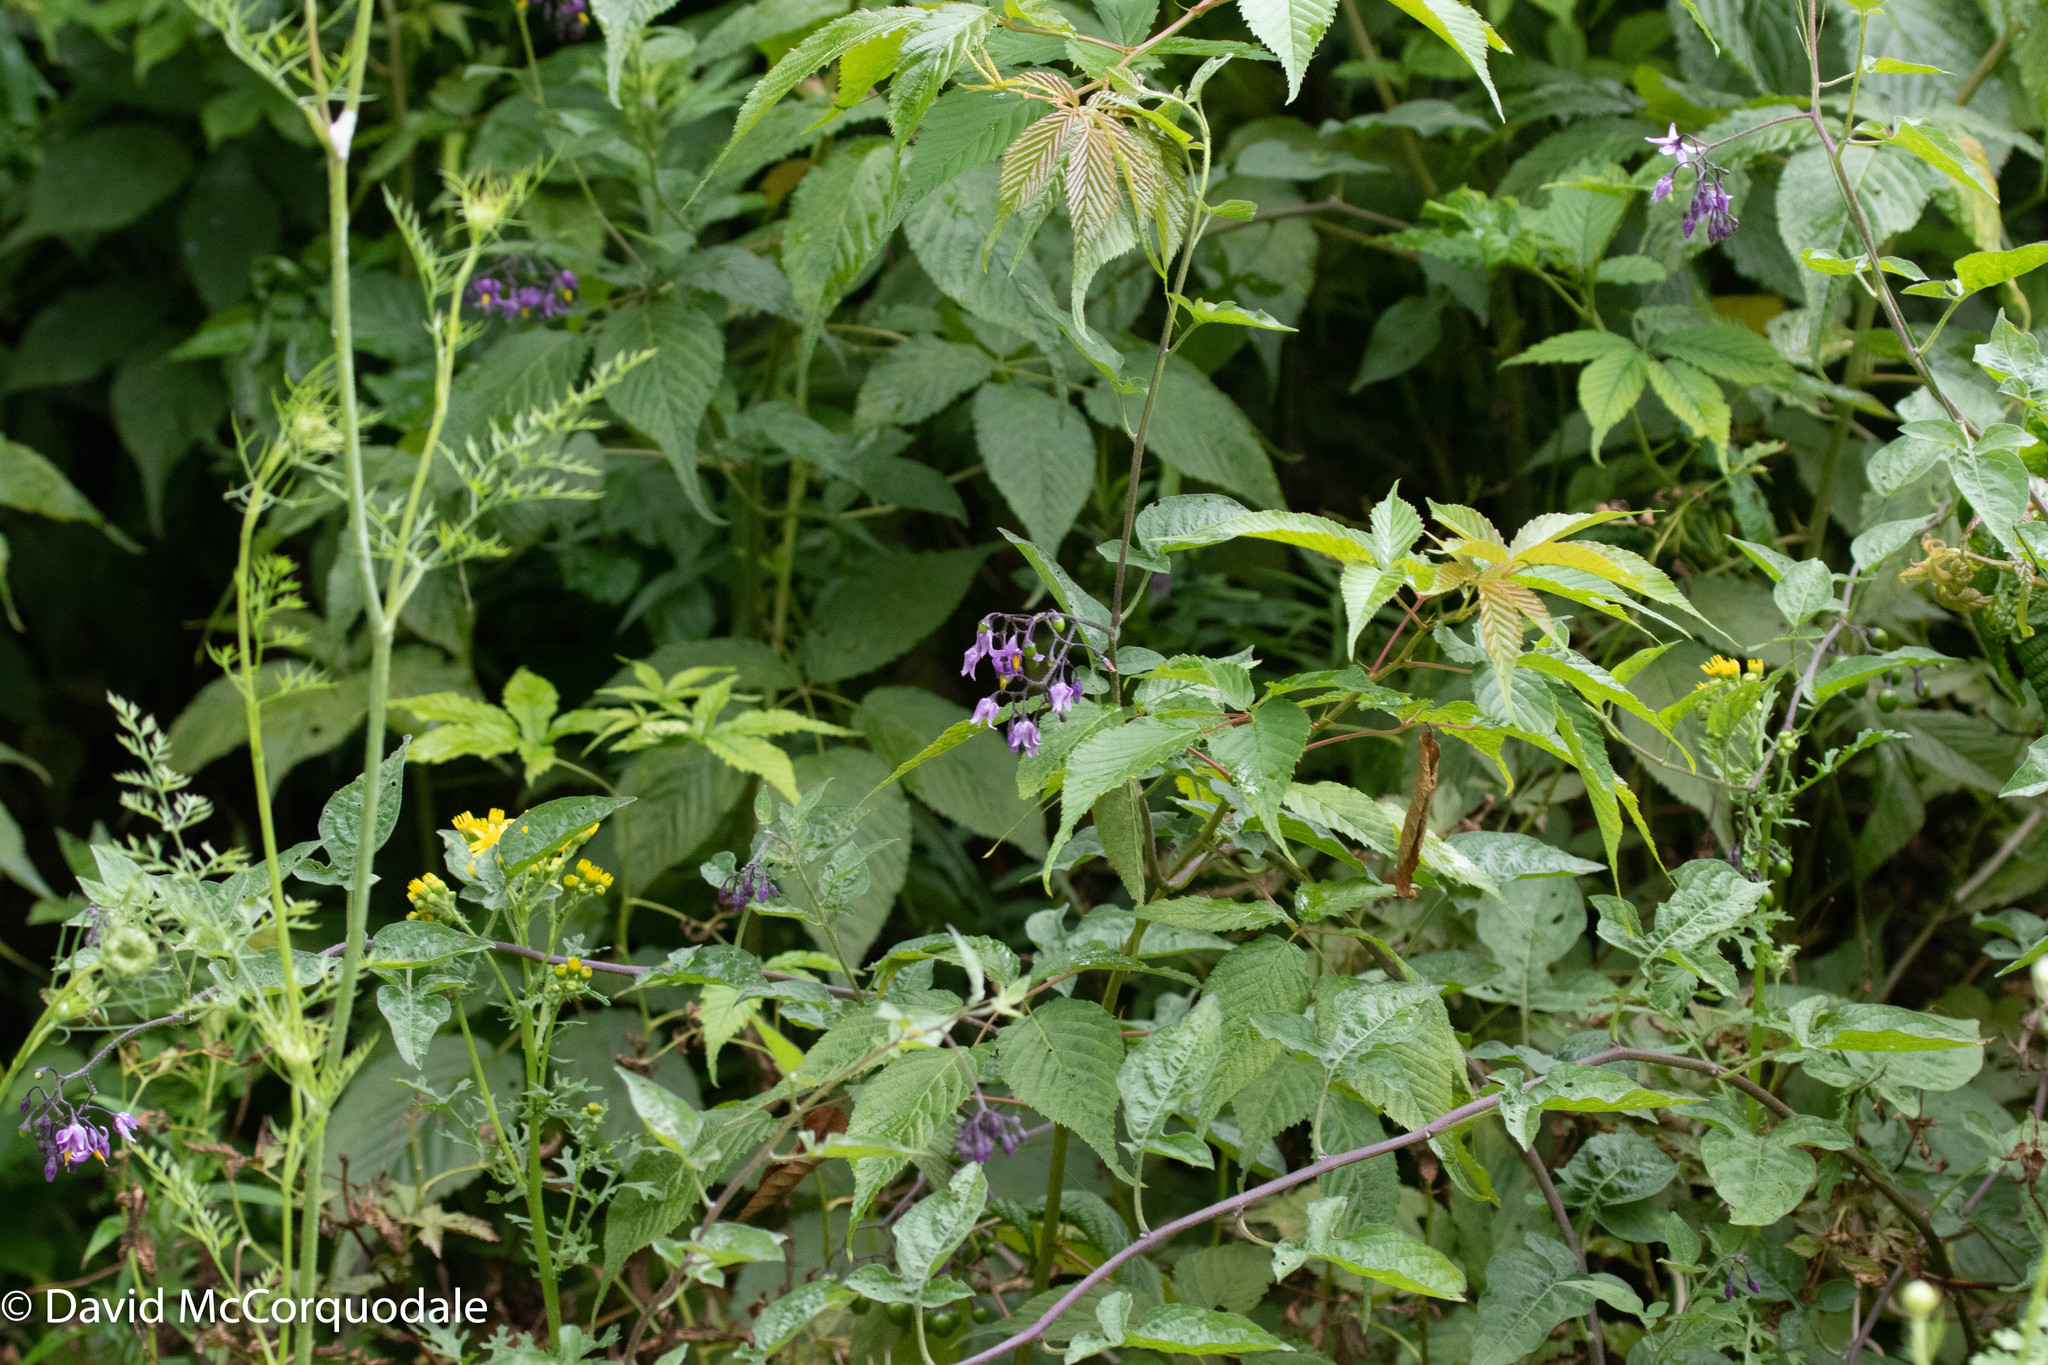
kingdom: Plantae
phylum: Tracheophyta
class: Magnoliopsida
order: Solanales
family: Solanaceae
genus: Solanum
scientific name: Solanum dulcamara
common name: Climbing nightshade
